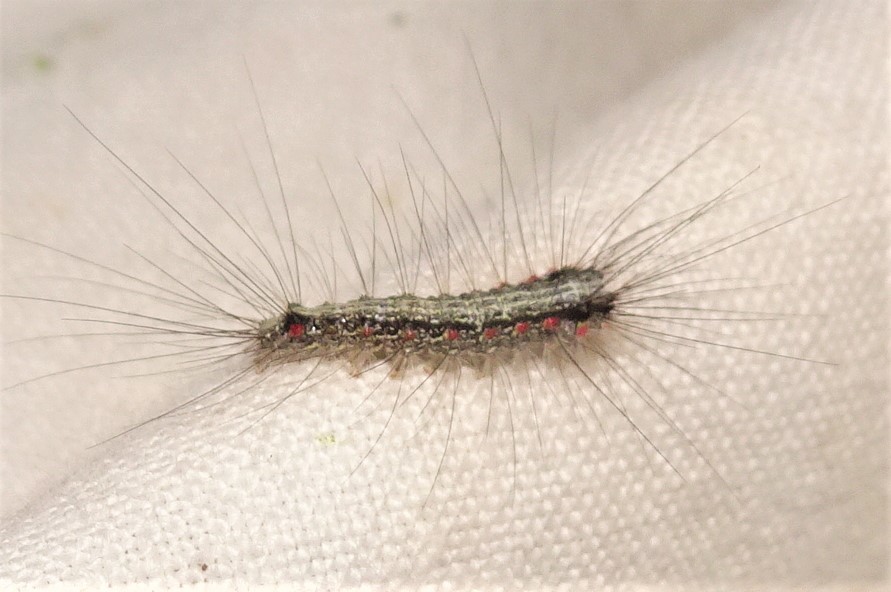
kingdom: Animalia
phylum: Arthropoda
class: Insecta
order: Lepidoptera
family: Erebidae
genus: Anestia
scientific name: Anestia semiochrea
